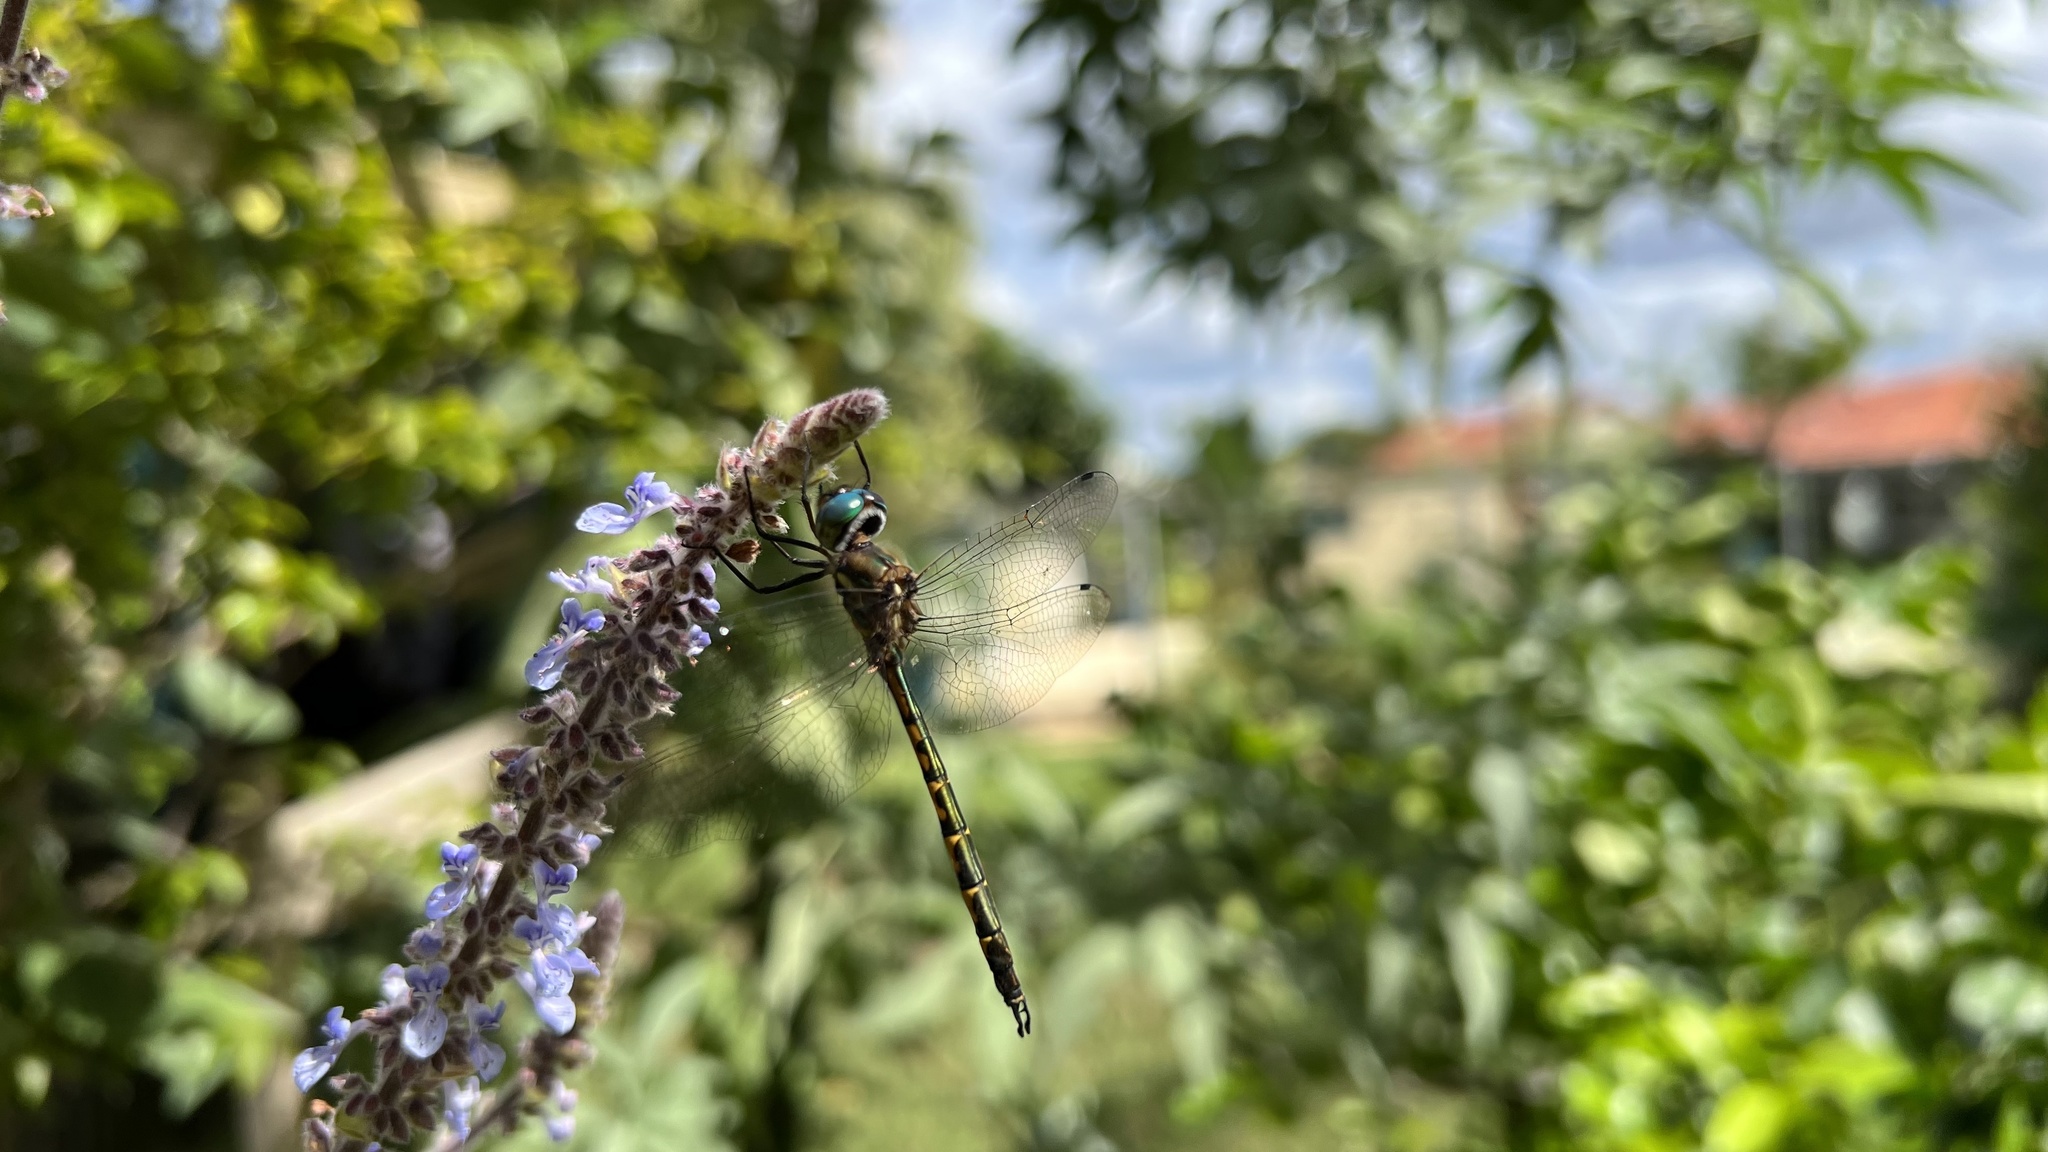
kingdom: Animalia
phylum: Arthropoda
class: Insecta
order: Odonata
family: Corduliidae
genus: Hemicordulia
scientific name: Hemicordulia australiae
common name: Sentry dragonfly
